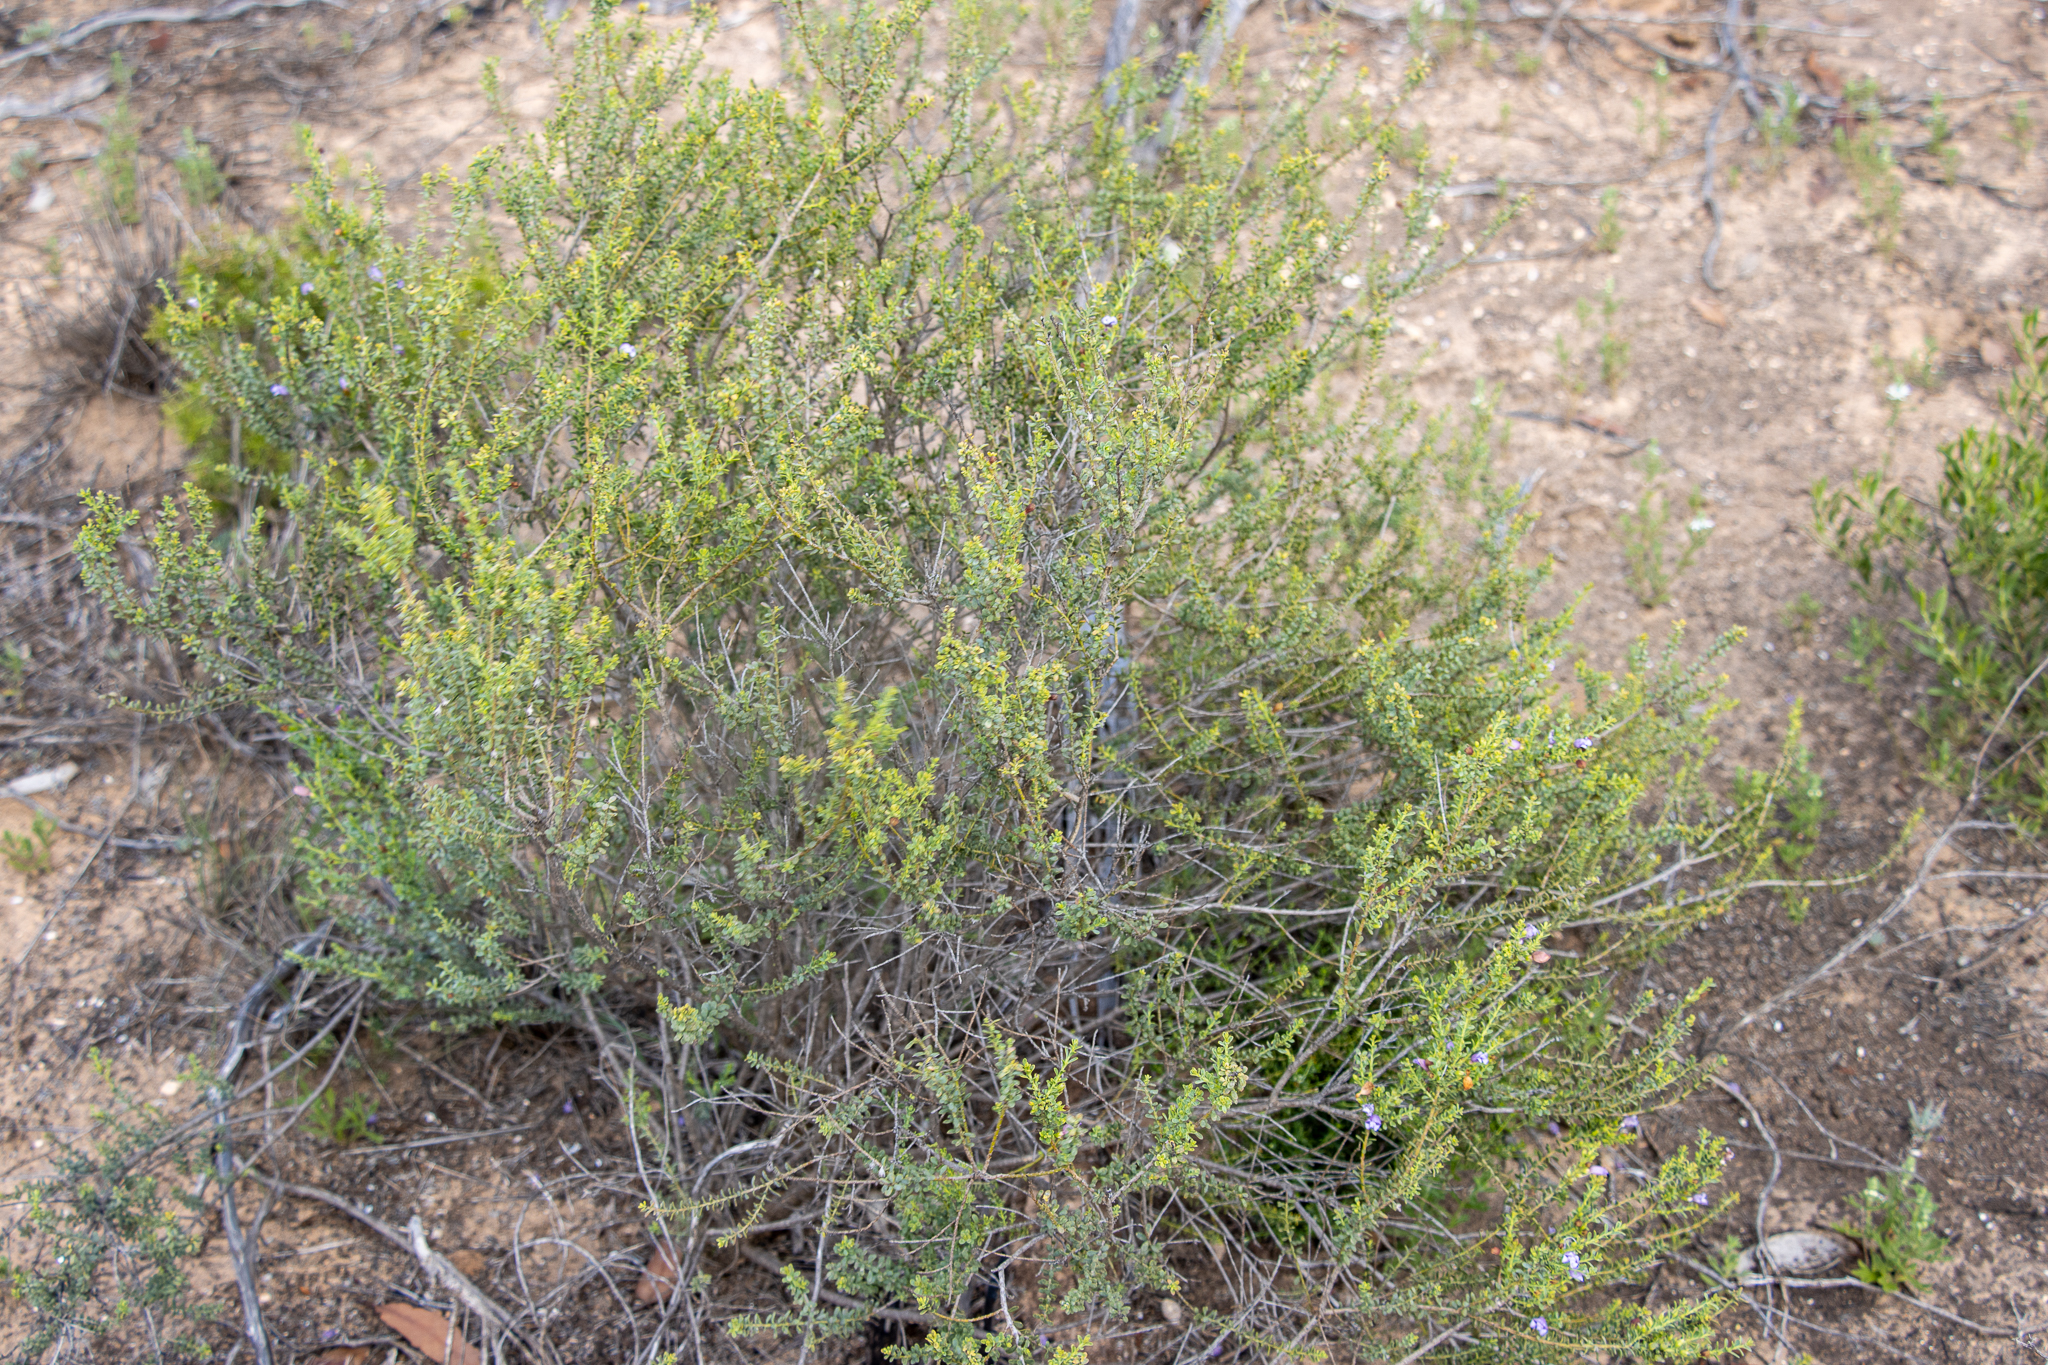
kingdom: Plantae
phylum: Tracheophyta
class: Magnoliopsida
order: Lamiales
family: Scrophulariaceae
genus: Eremophila
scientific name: Eremophila weldii
